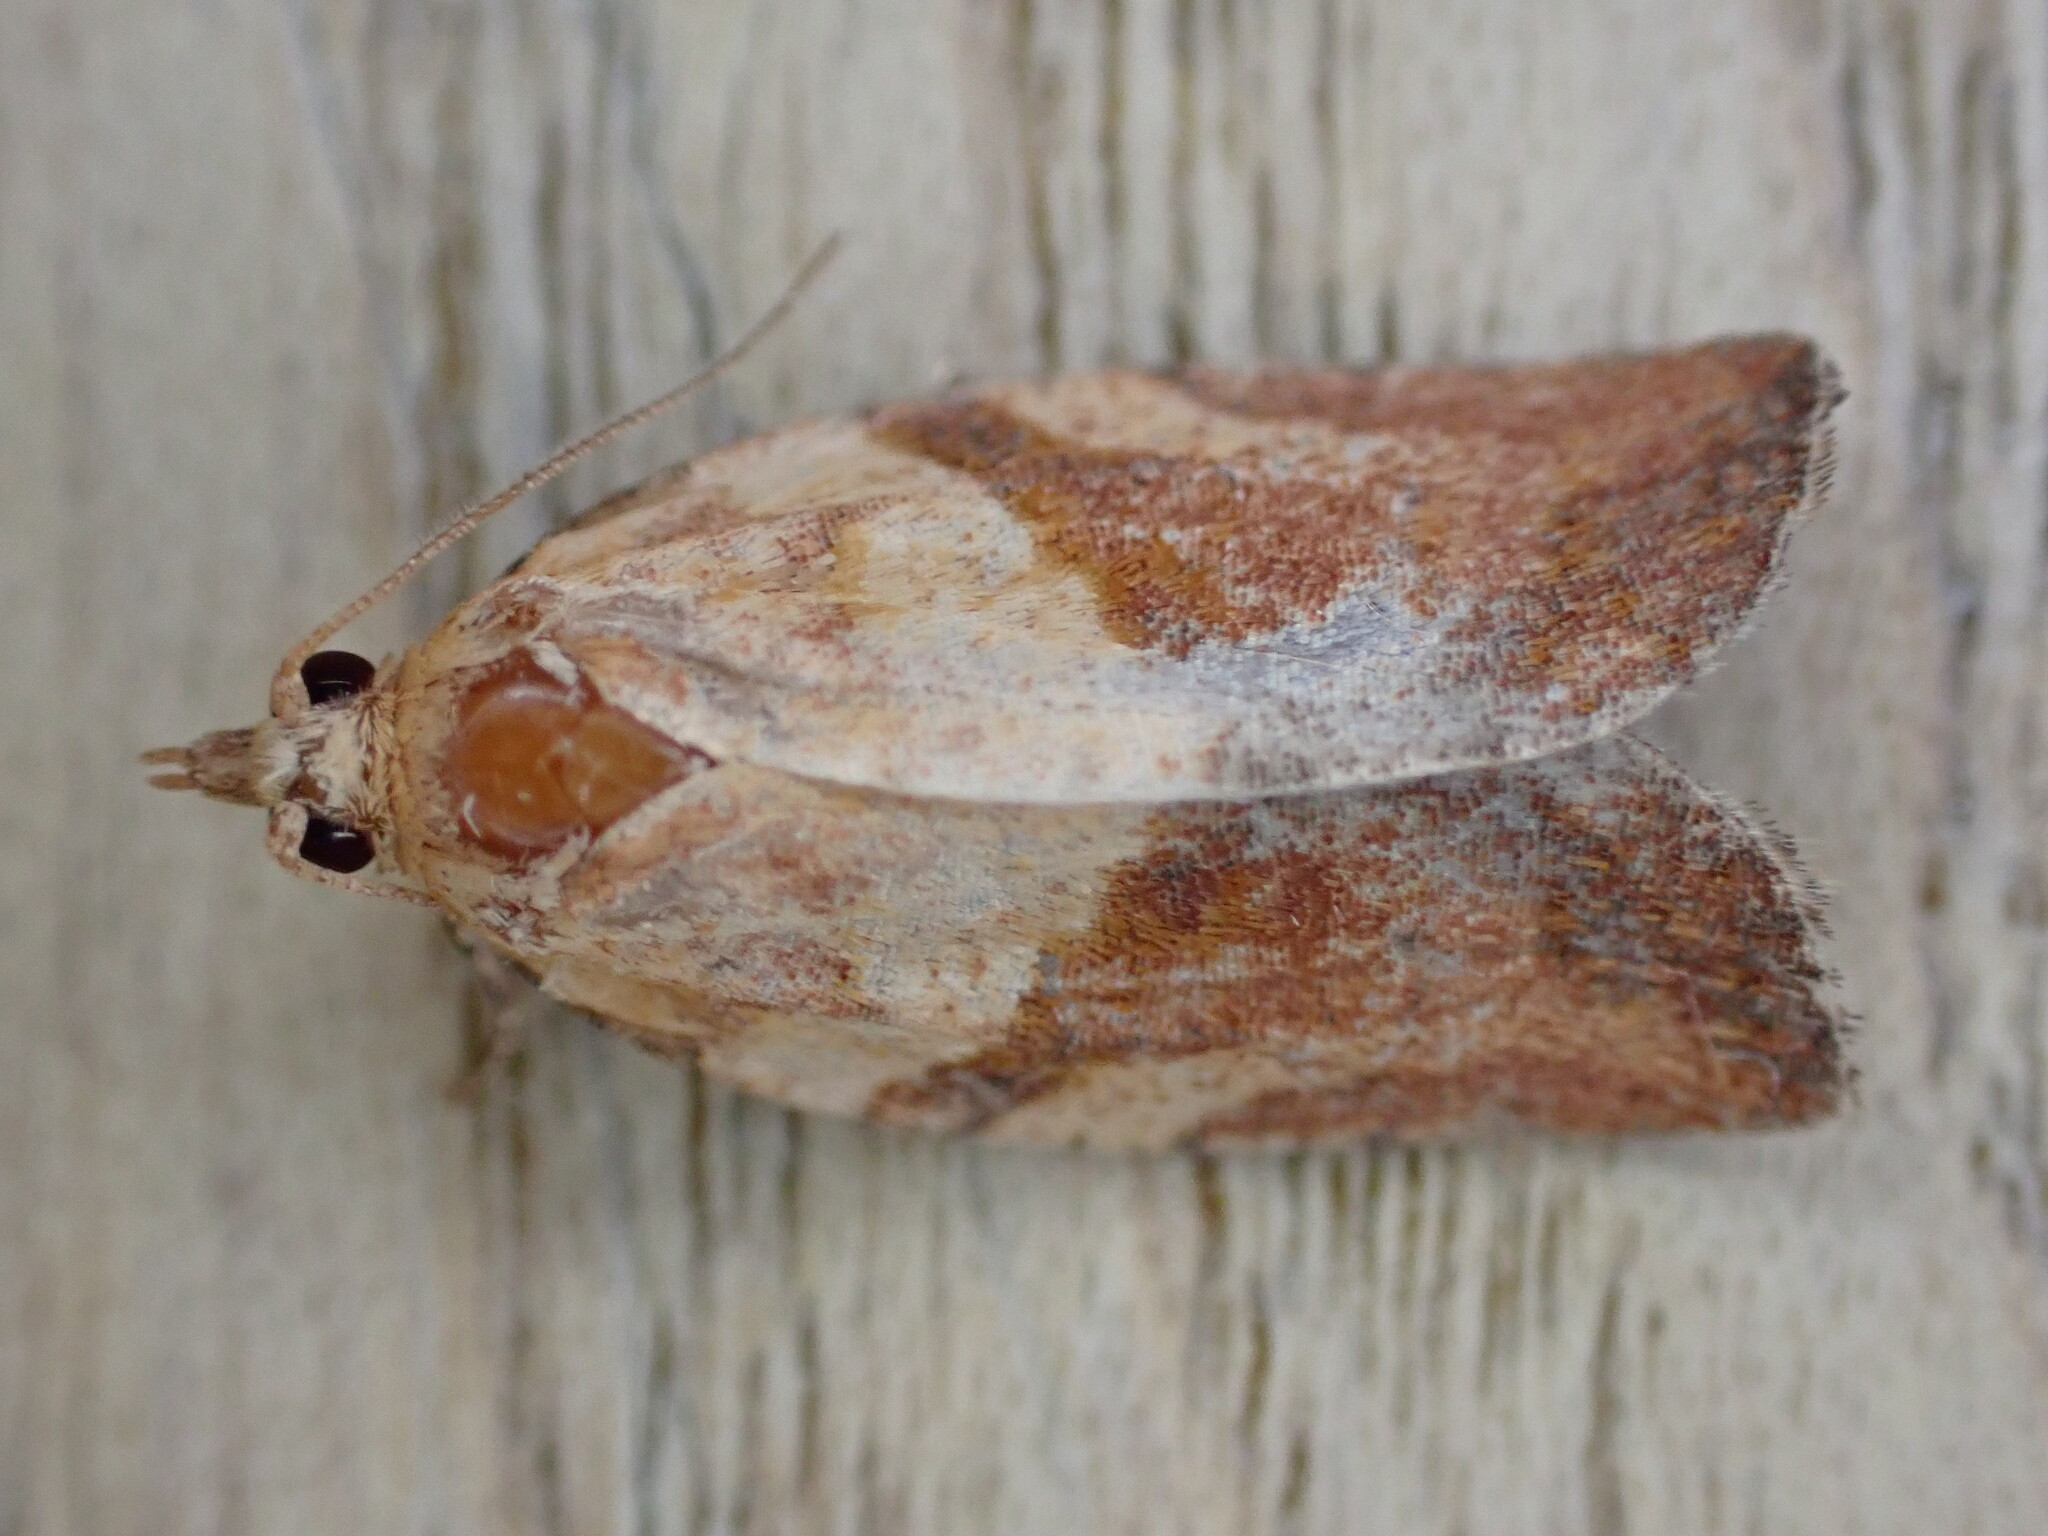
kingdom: Animalia
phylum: Arthropoda
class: Insecta
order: Lepidoptera
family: Tortricidae
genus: Epiphyas
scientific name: Epiphyas postvittana
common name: Light brown apple moth
